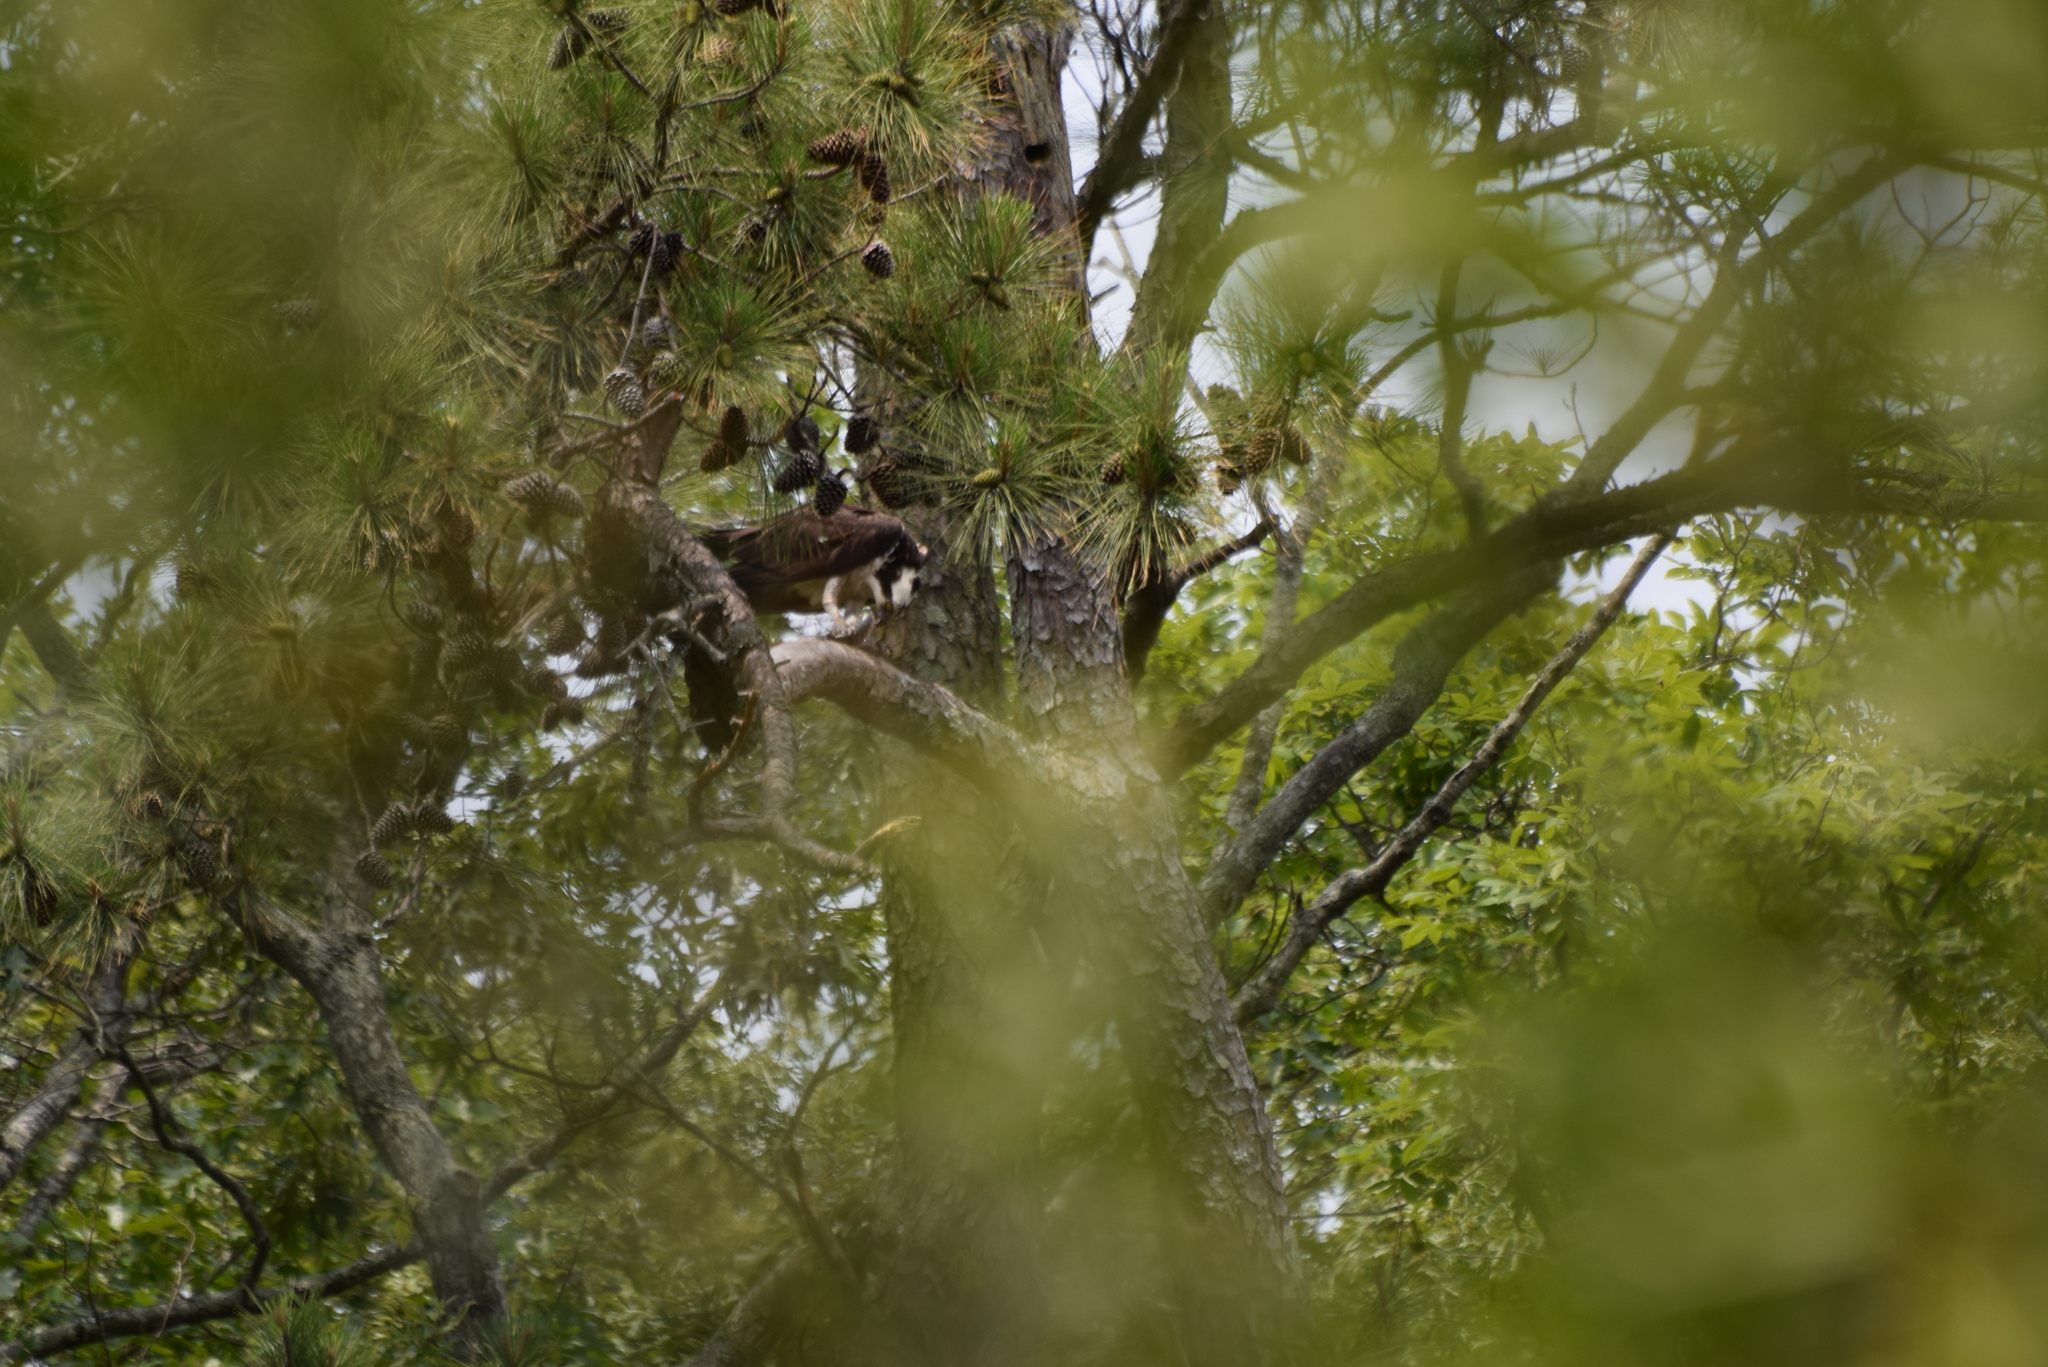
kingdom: Animalia
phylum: Chordata
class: Aves
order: Accipitriformes
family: Pandionidae
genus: Pandion
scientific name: Pandion haliaetus
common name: Osprey
